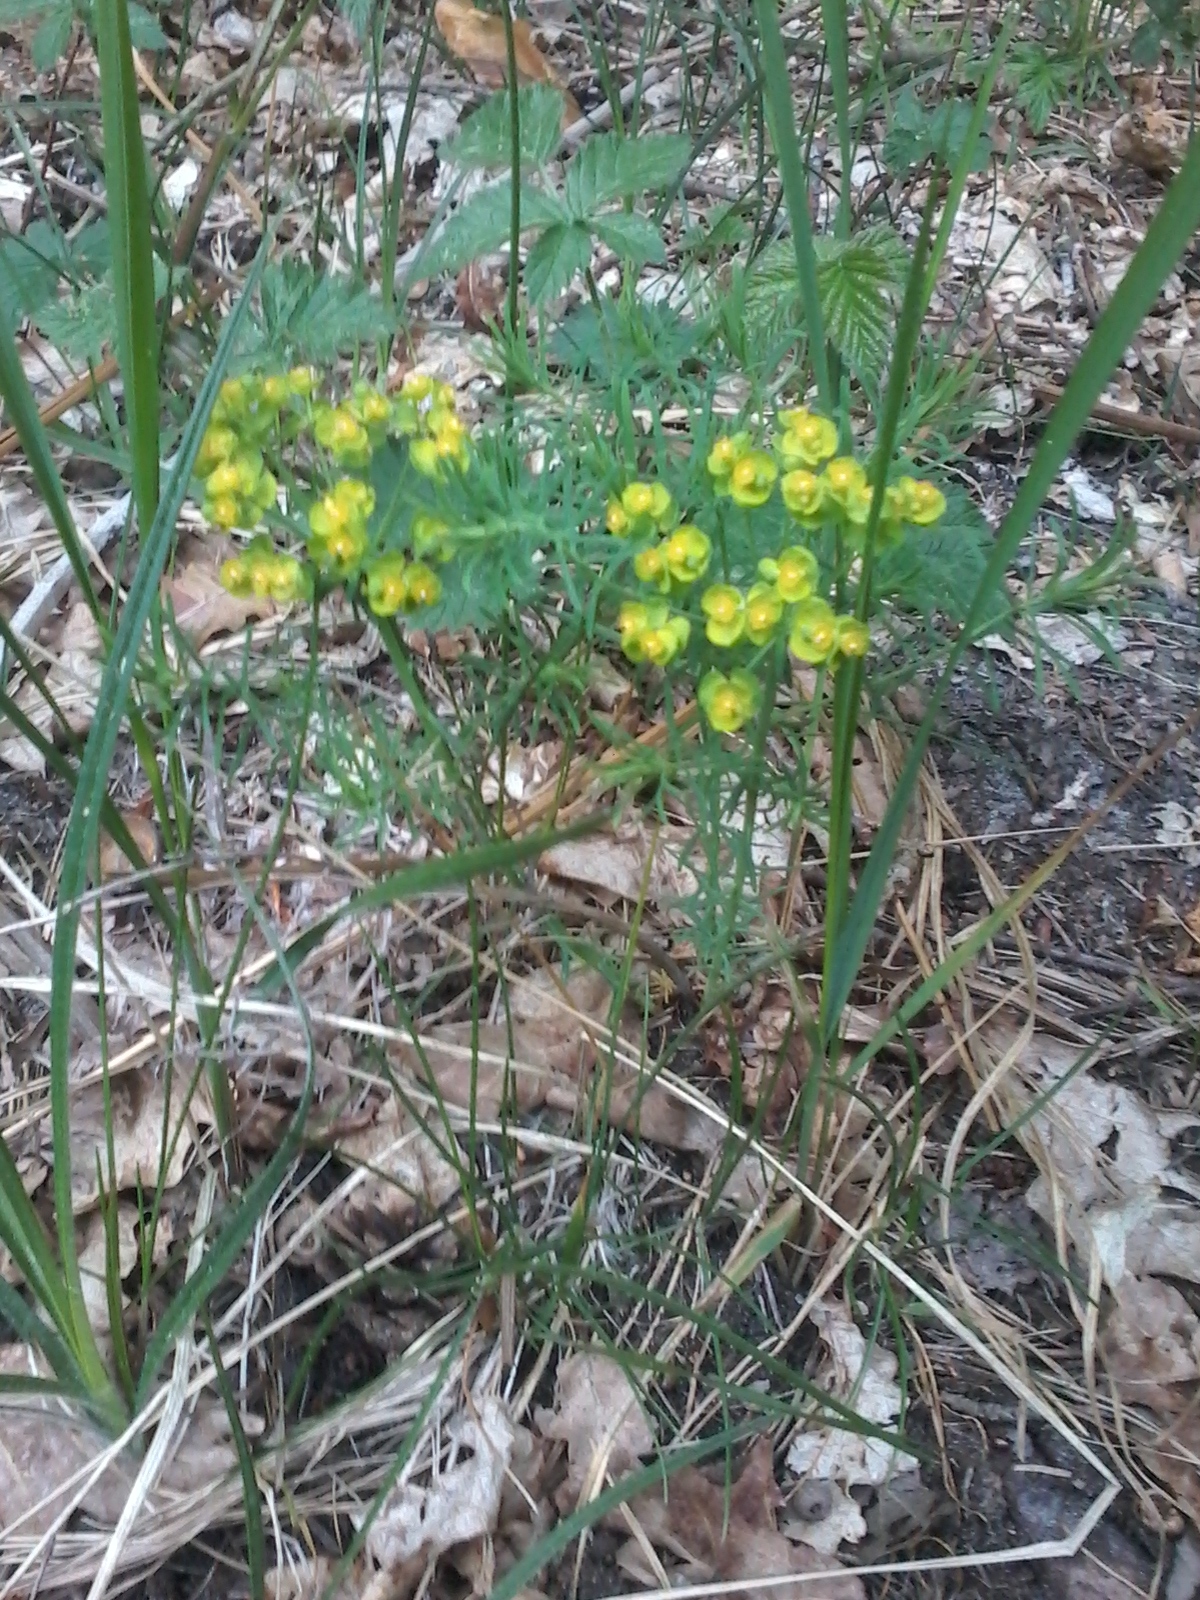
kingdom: Plantae
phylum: Tracheophyta
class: Magnoliopsida
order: Malpighiales
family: Euphorbiaceae
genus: Euphorbia
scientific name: Euphorbia cyparissias
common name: Cypress spurge
